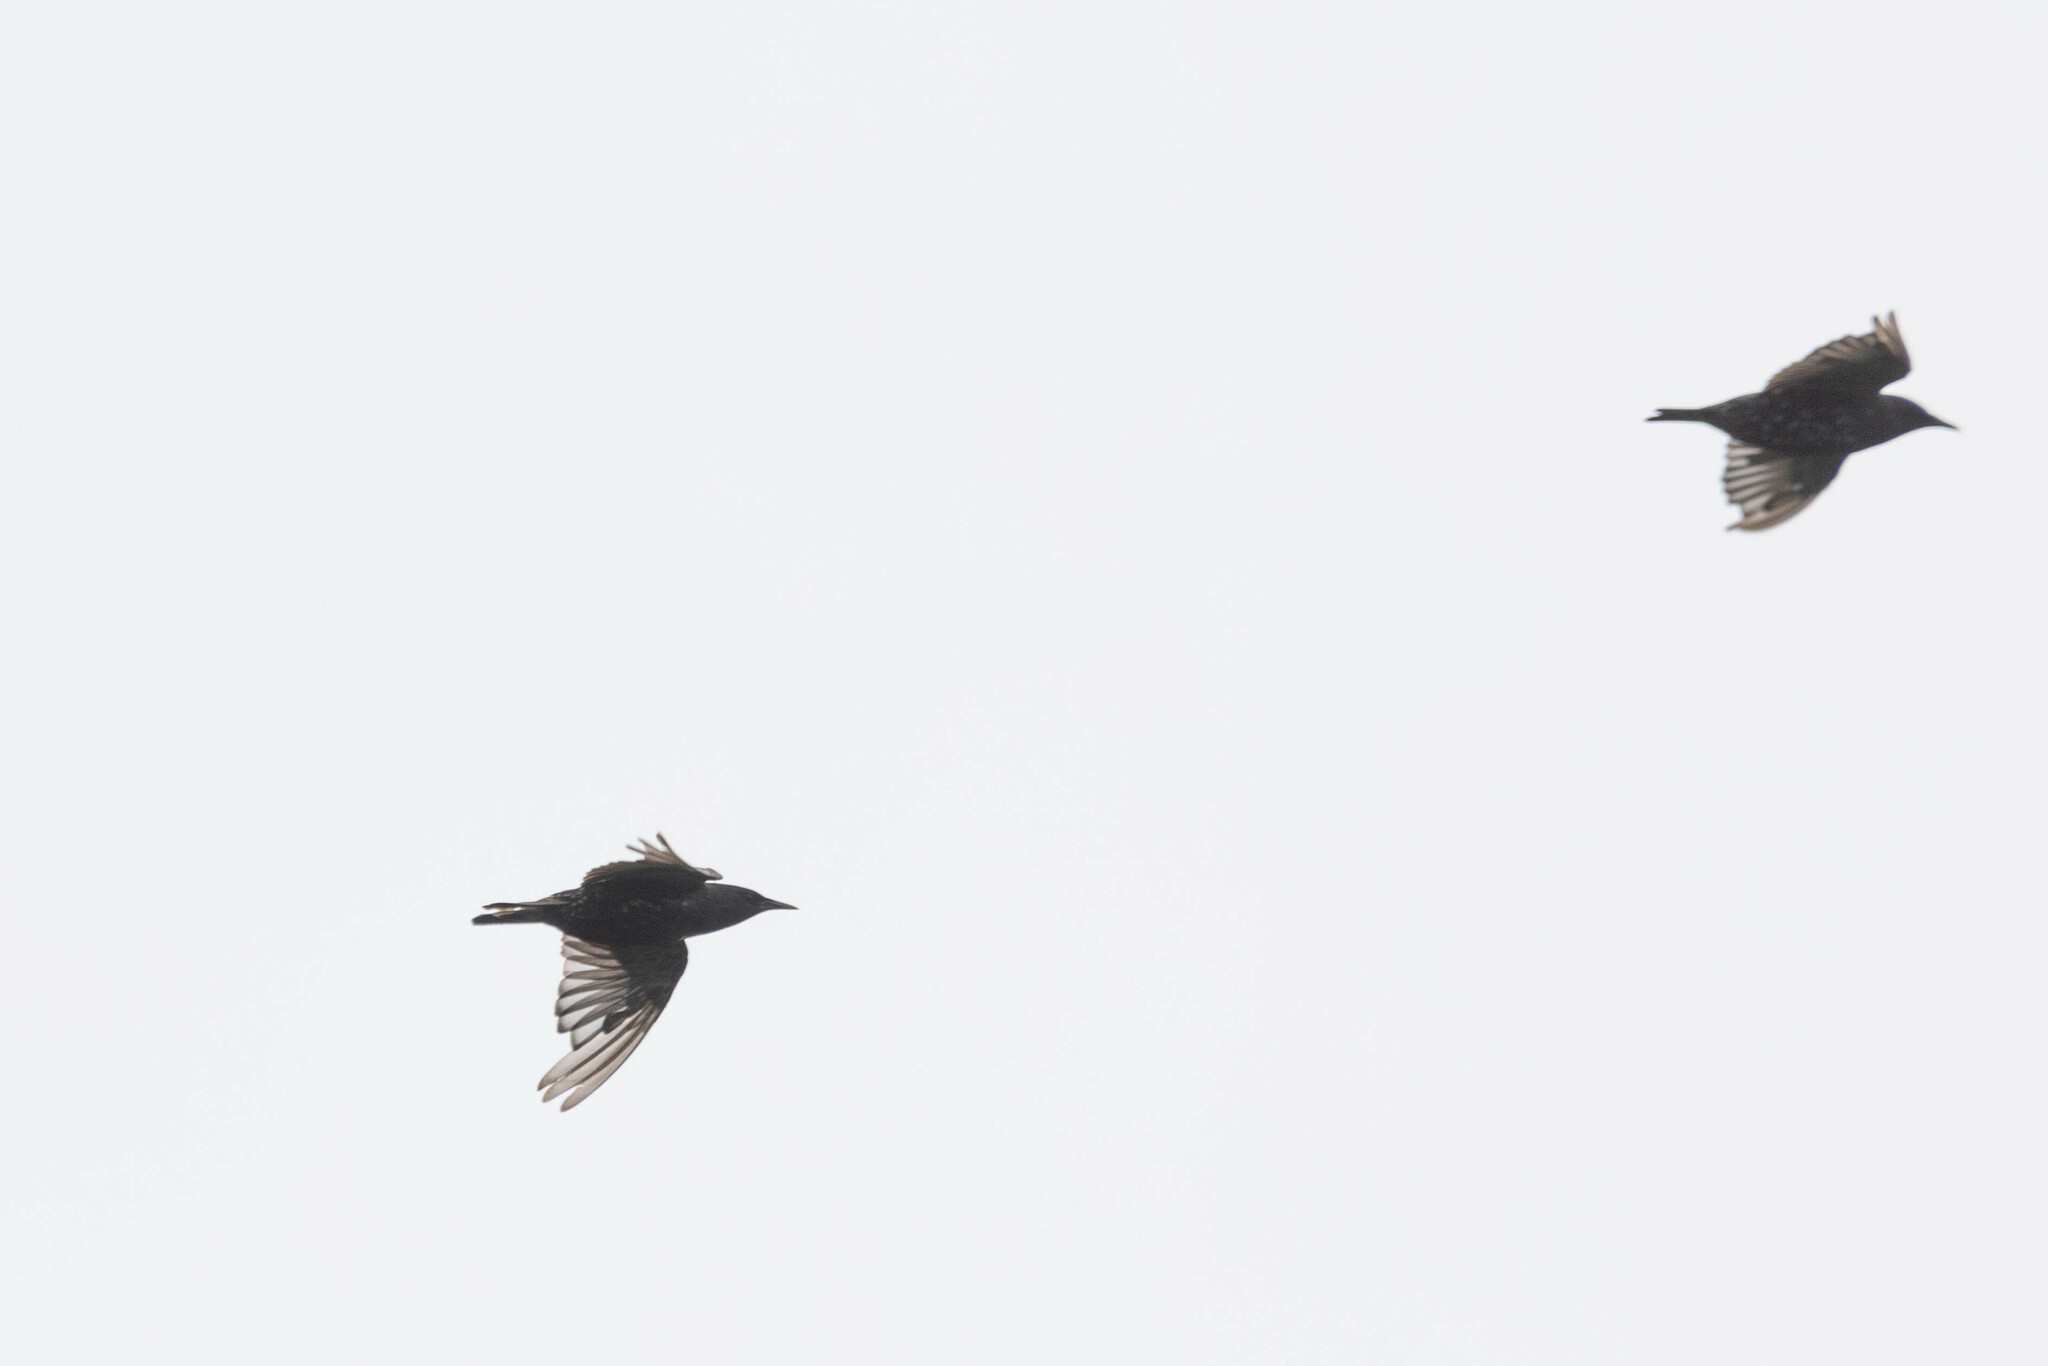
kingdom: Animalia
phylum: Chordata
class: Aves
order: Passeriformes
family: Sturnidae
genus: Sturnus
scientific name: Sturnus vulgaris
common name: Common starling
